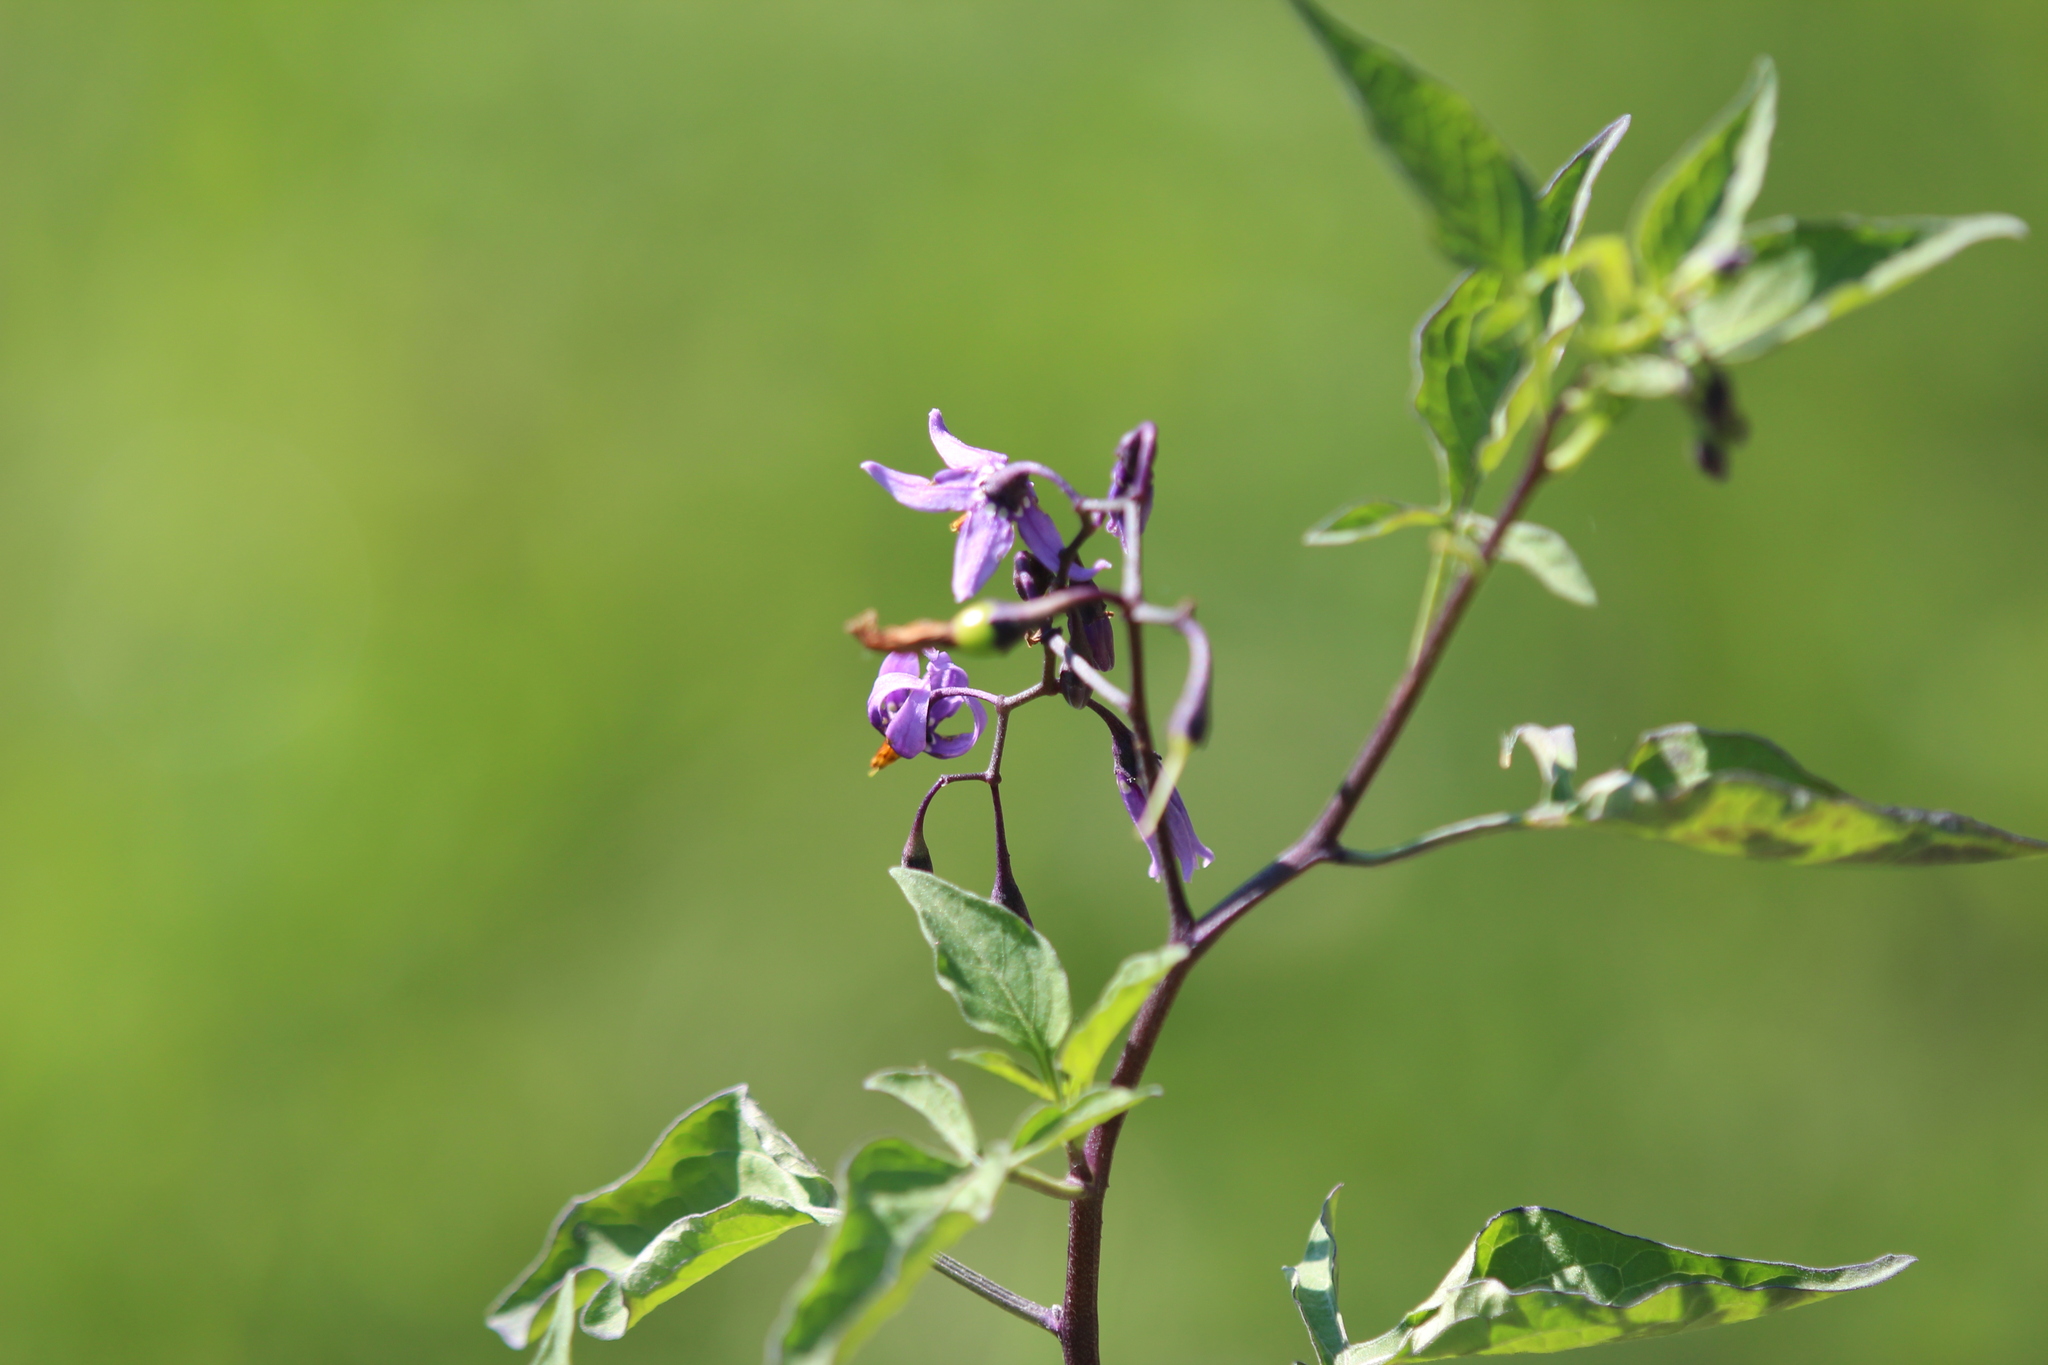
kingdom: Plantae
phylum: Tracheophyta
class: Magnoliopsida
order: Solanales
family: Solanaceae
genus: Solanum
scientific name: Solanum dulcamara
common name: Climbing nightshade
